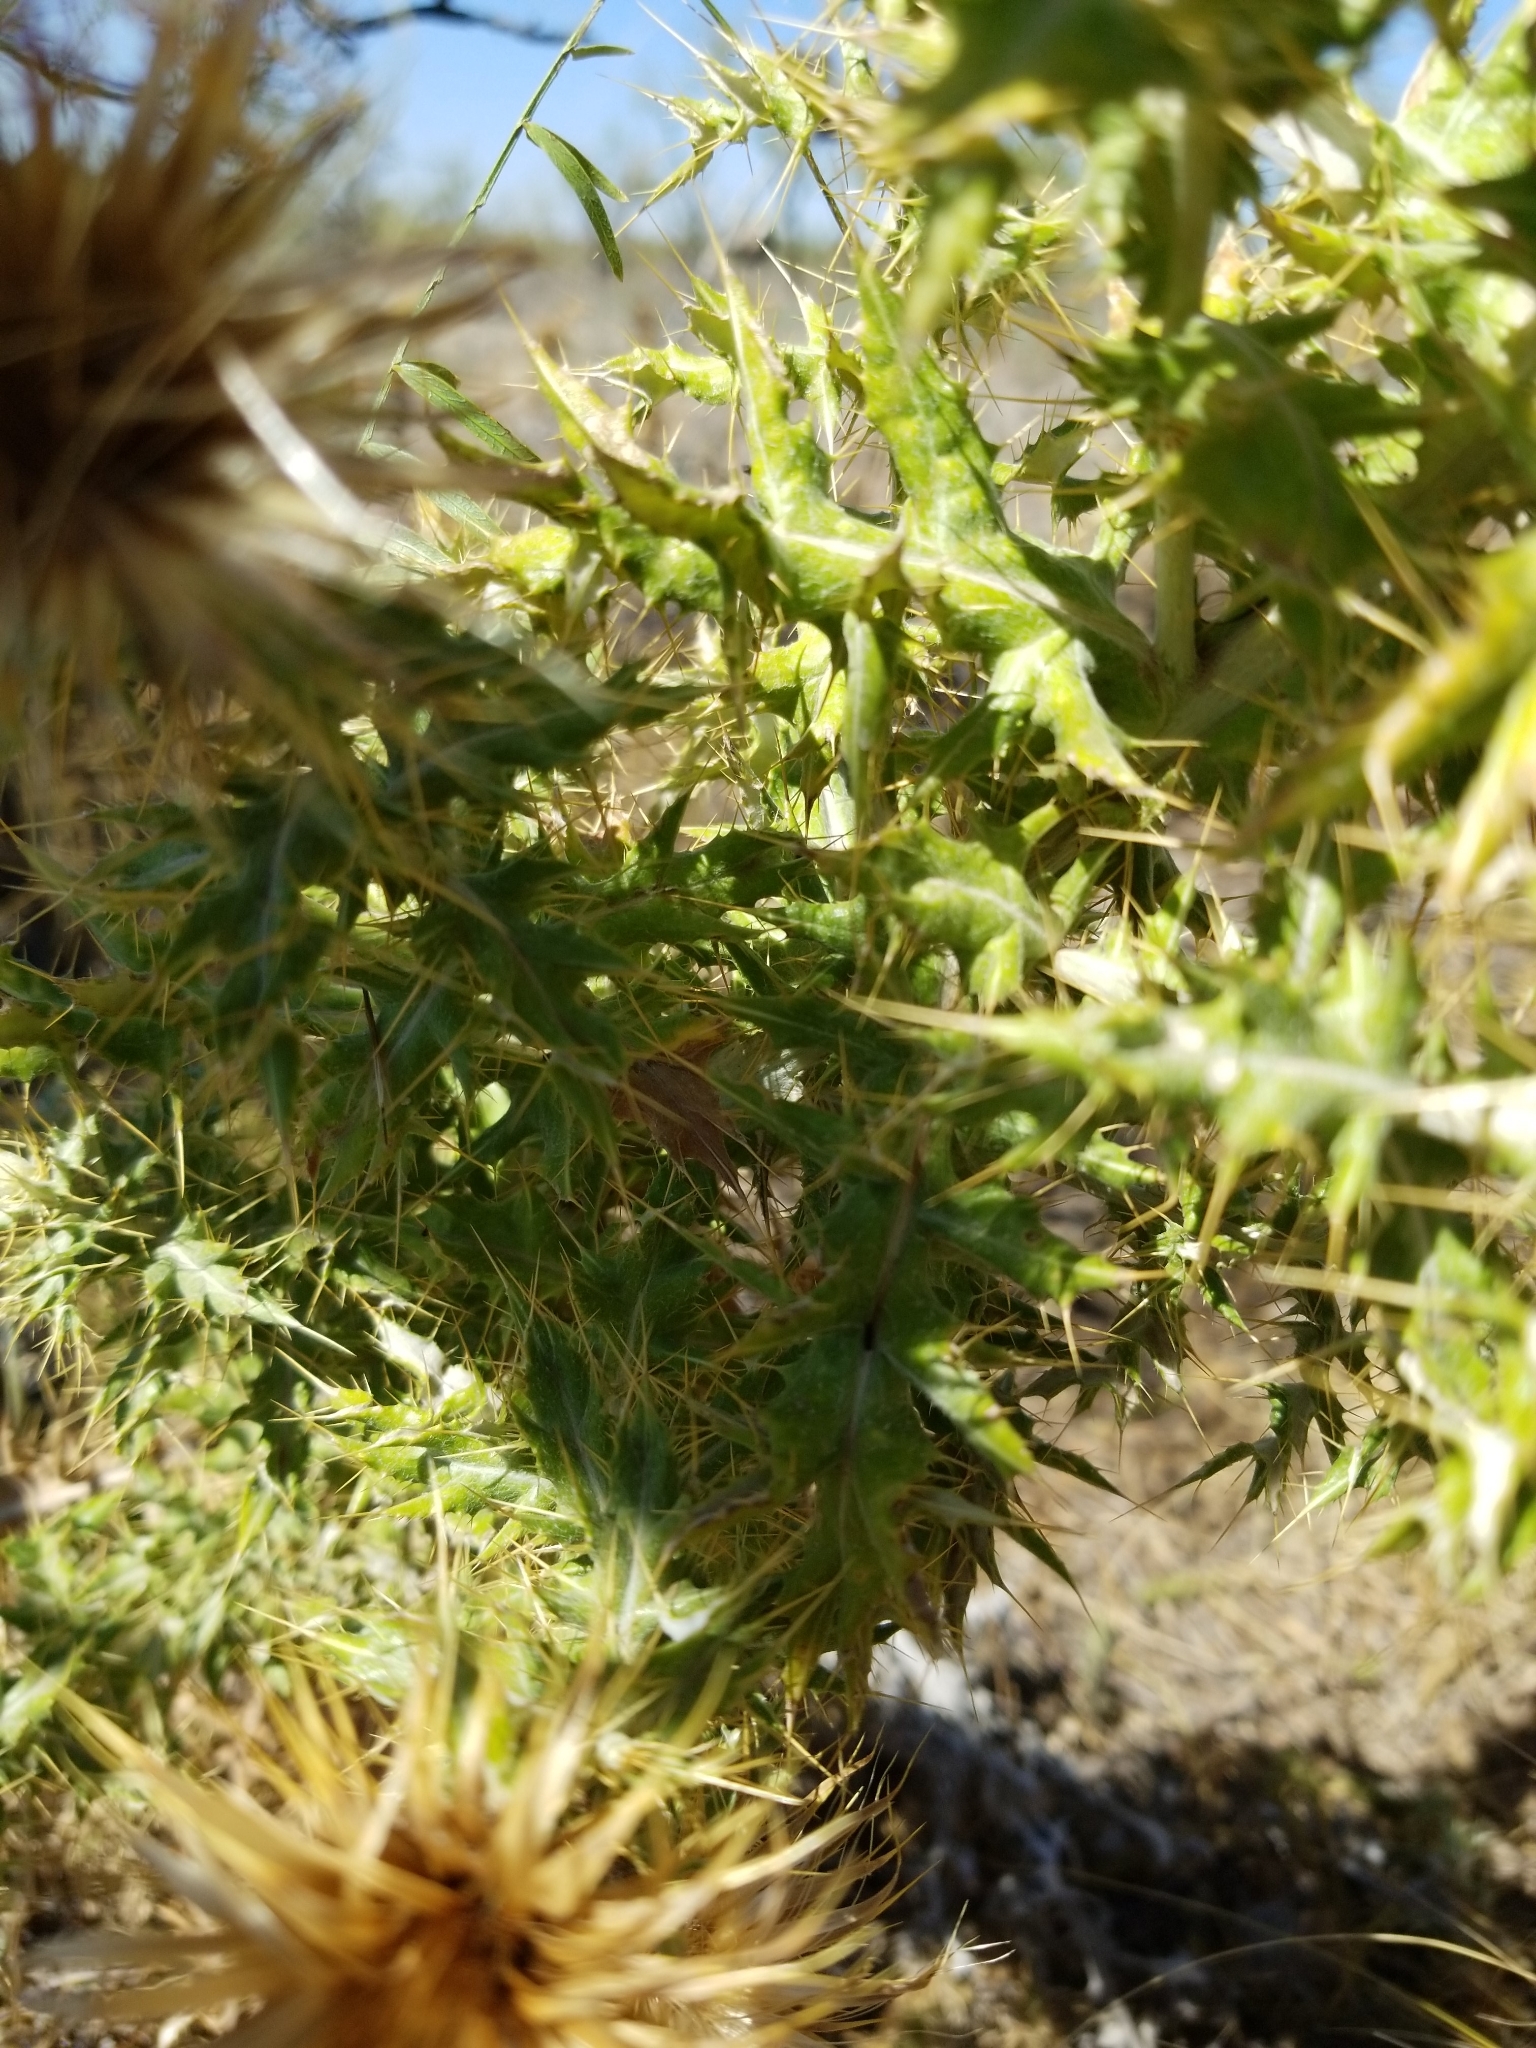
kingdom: Plantae
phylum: Tracheophyta
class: Magnoliopsida
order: Asterales
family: Asteraceae
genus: Cirsium
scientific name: Cirsium ochrocentrum
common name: Yellow-spine thistle
